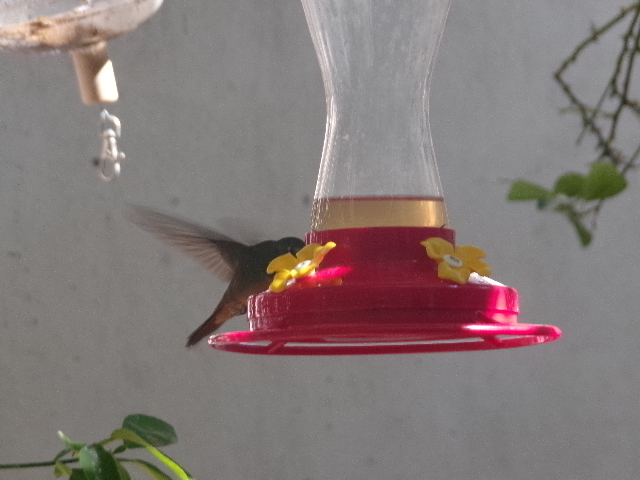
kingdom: Animalia
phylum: Chordata
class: Aves
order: Apodiformes
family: Trochilidae
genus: Amazilia
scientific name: Amazilia yucatanensis
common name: Buff-bellied hummingbird
